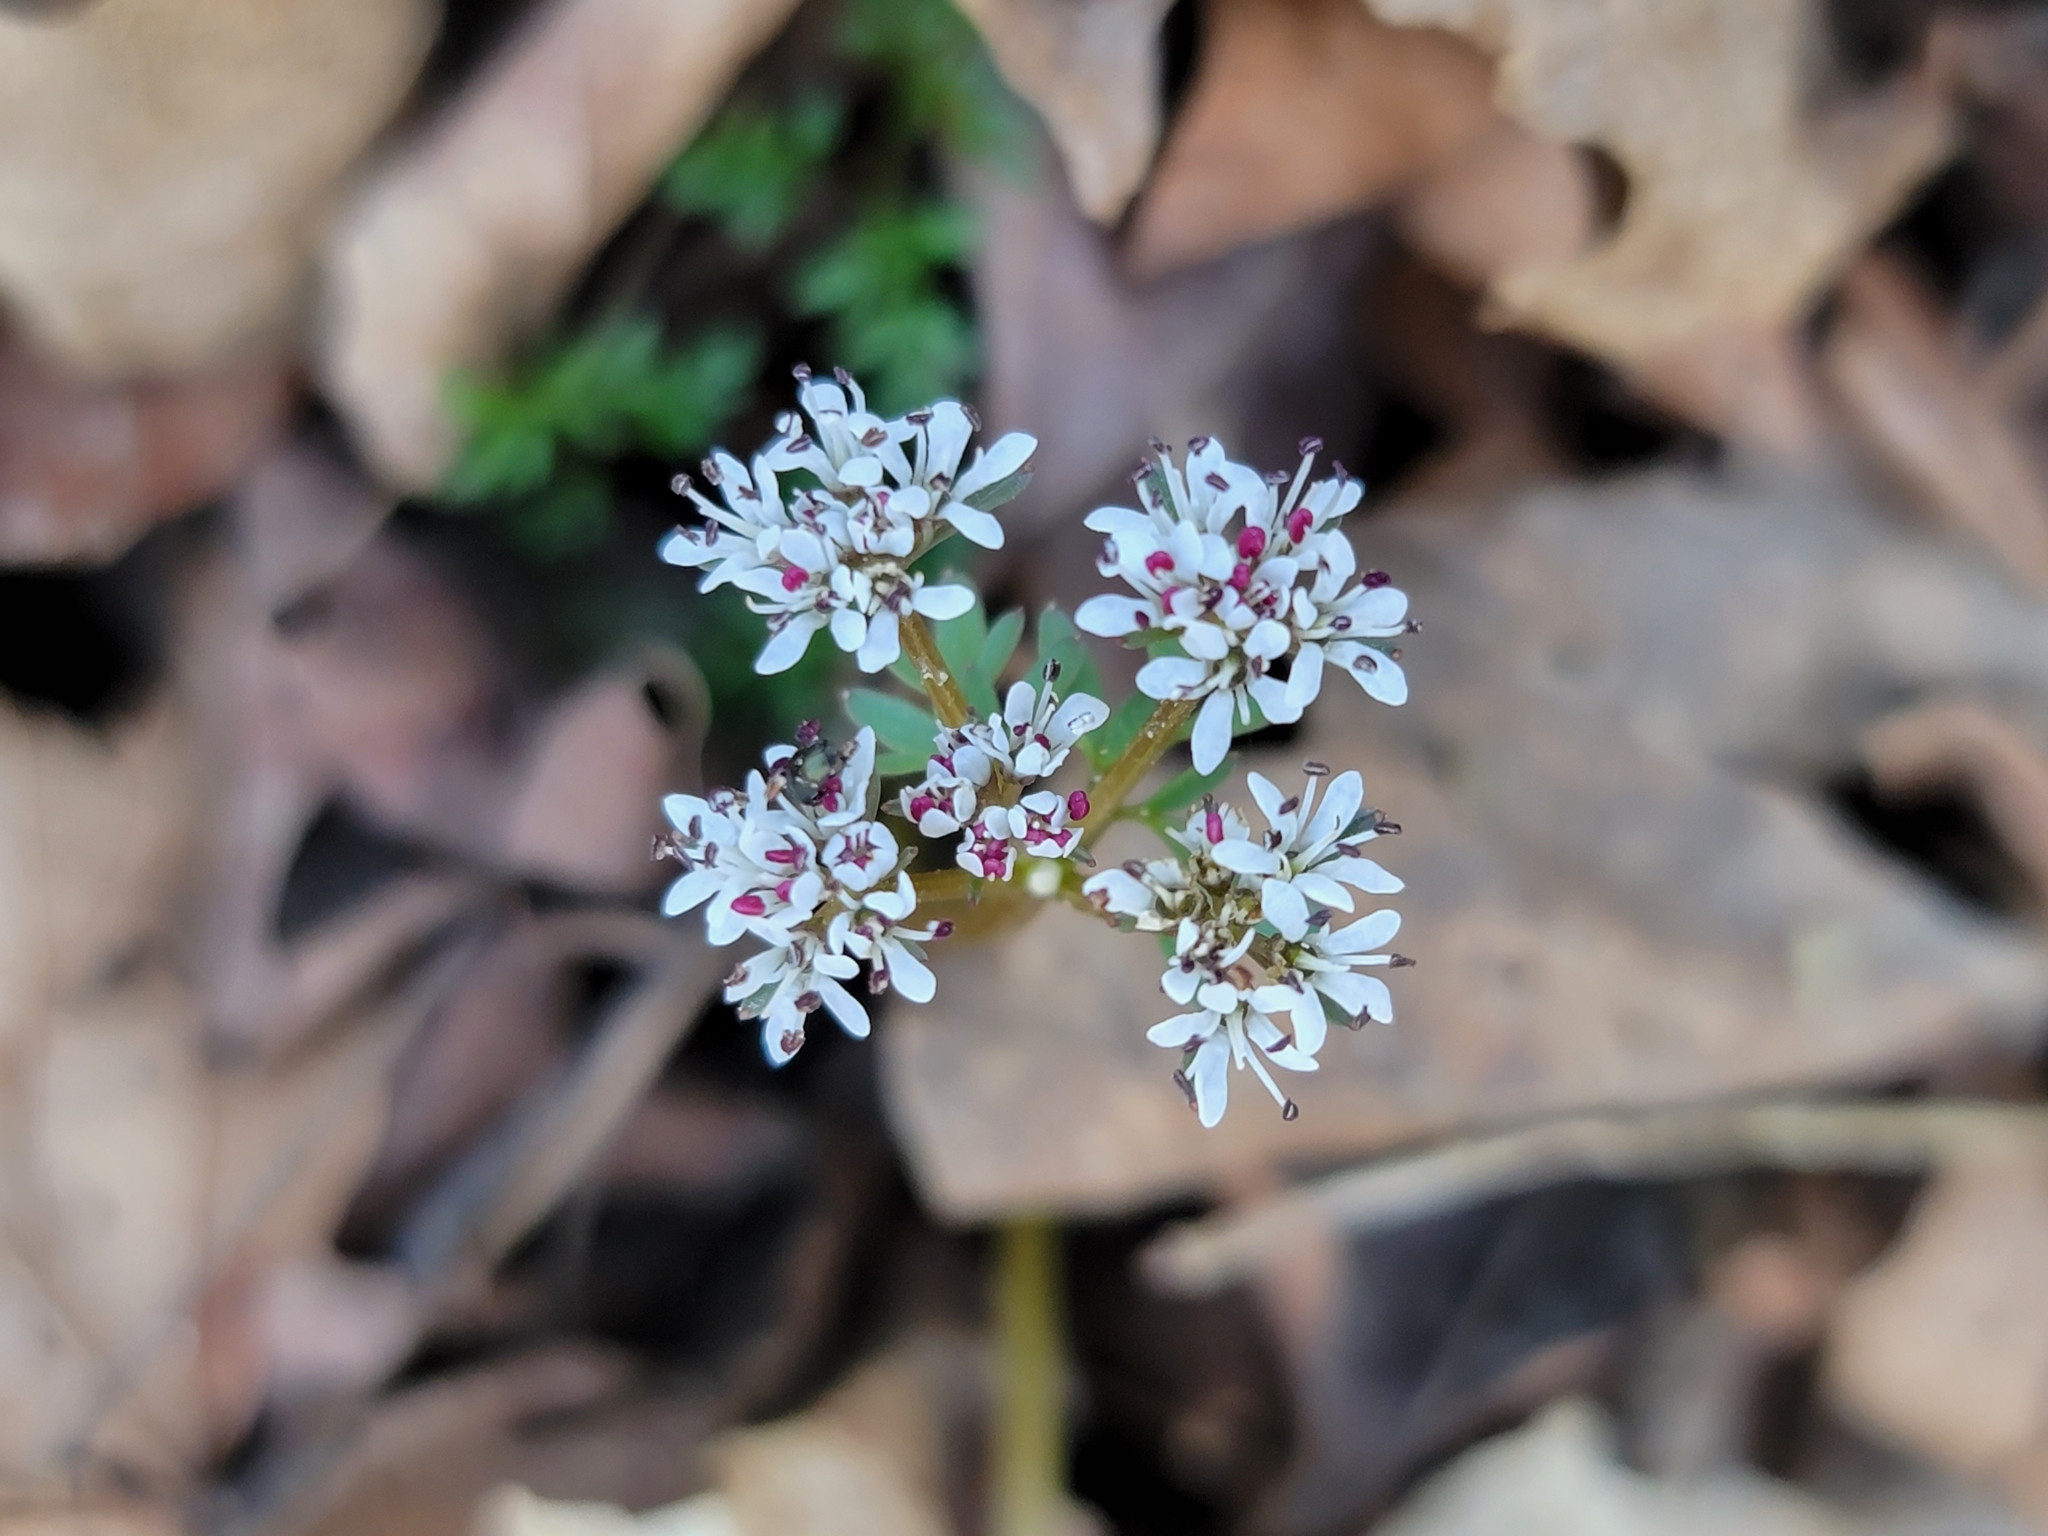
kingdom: Plantae
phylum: Tracheophyta
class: Magnoliopsida
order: Apiales
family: Apiaceae
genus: Erigenia
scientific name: Erigenia bulbosa
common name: Pepper-and-salt
